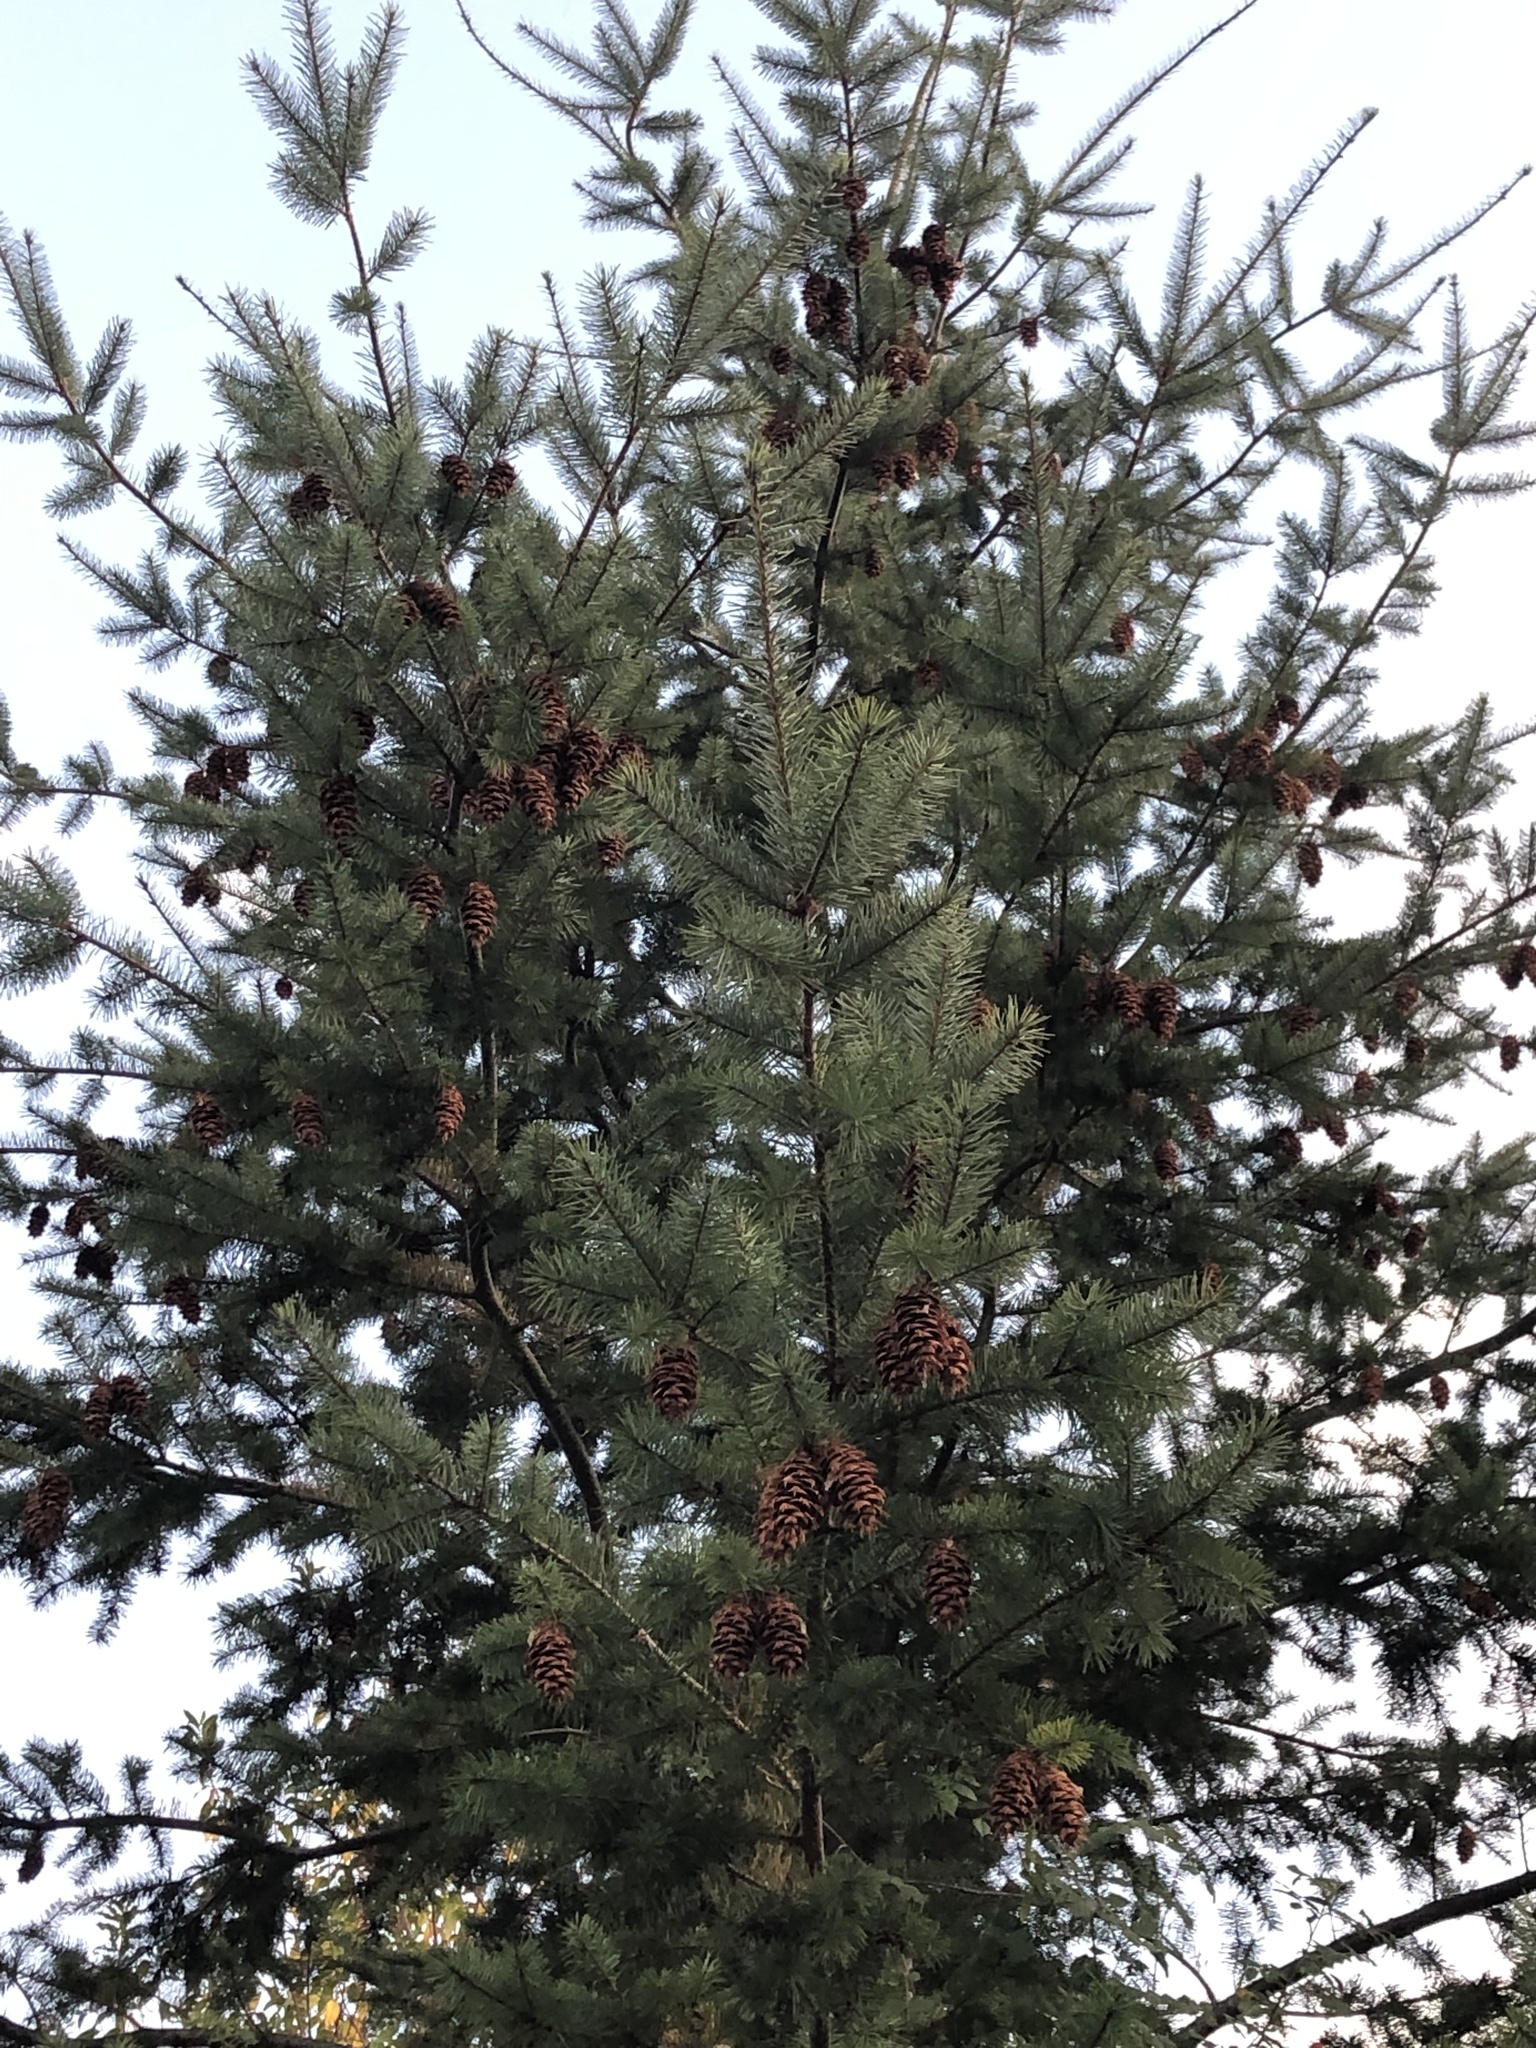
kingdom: Plantae
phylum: Tracheophyta
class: Pinopsida
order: Pinales
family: Pinaceae
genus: Pseudotsuga
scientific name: Pseudotsuga menziesii
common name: Douglas fir
